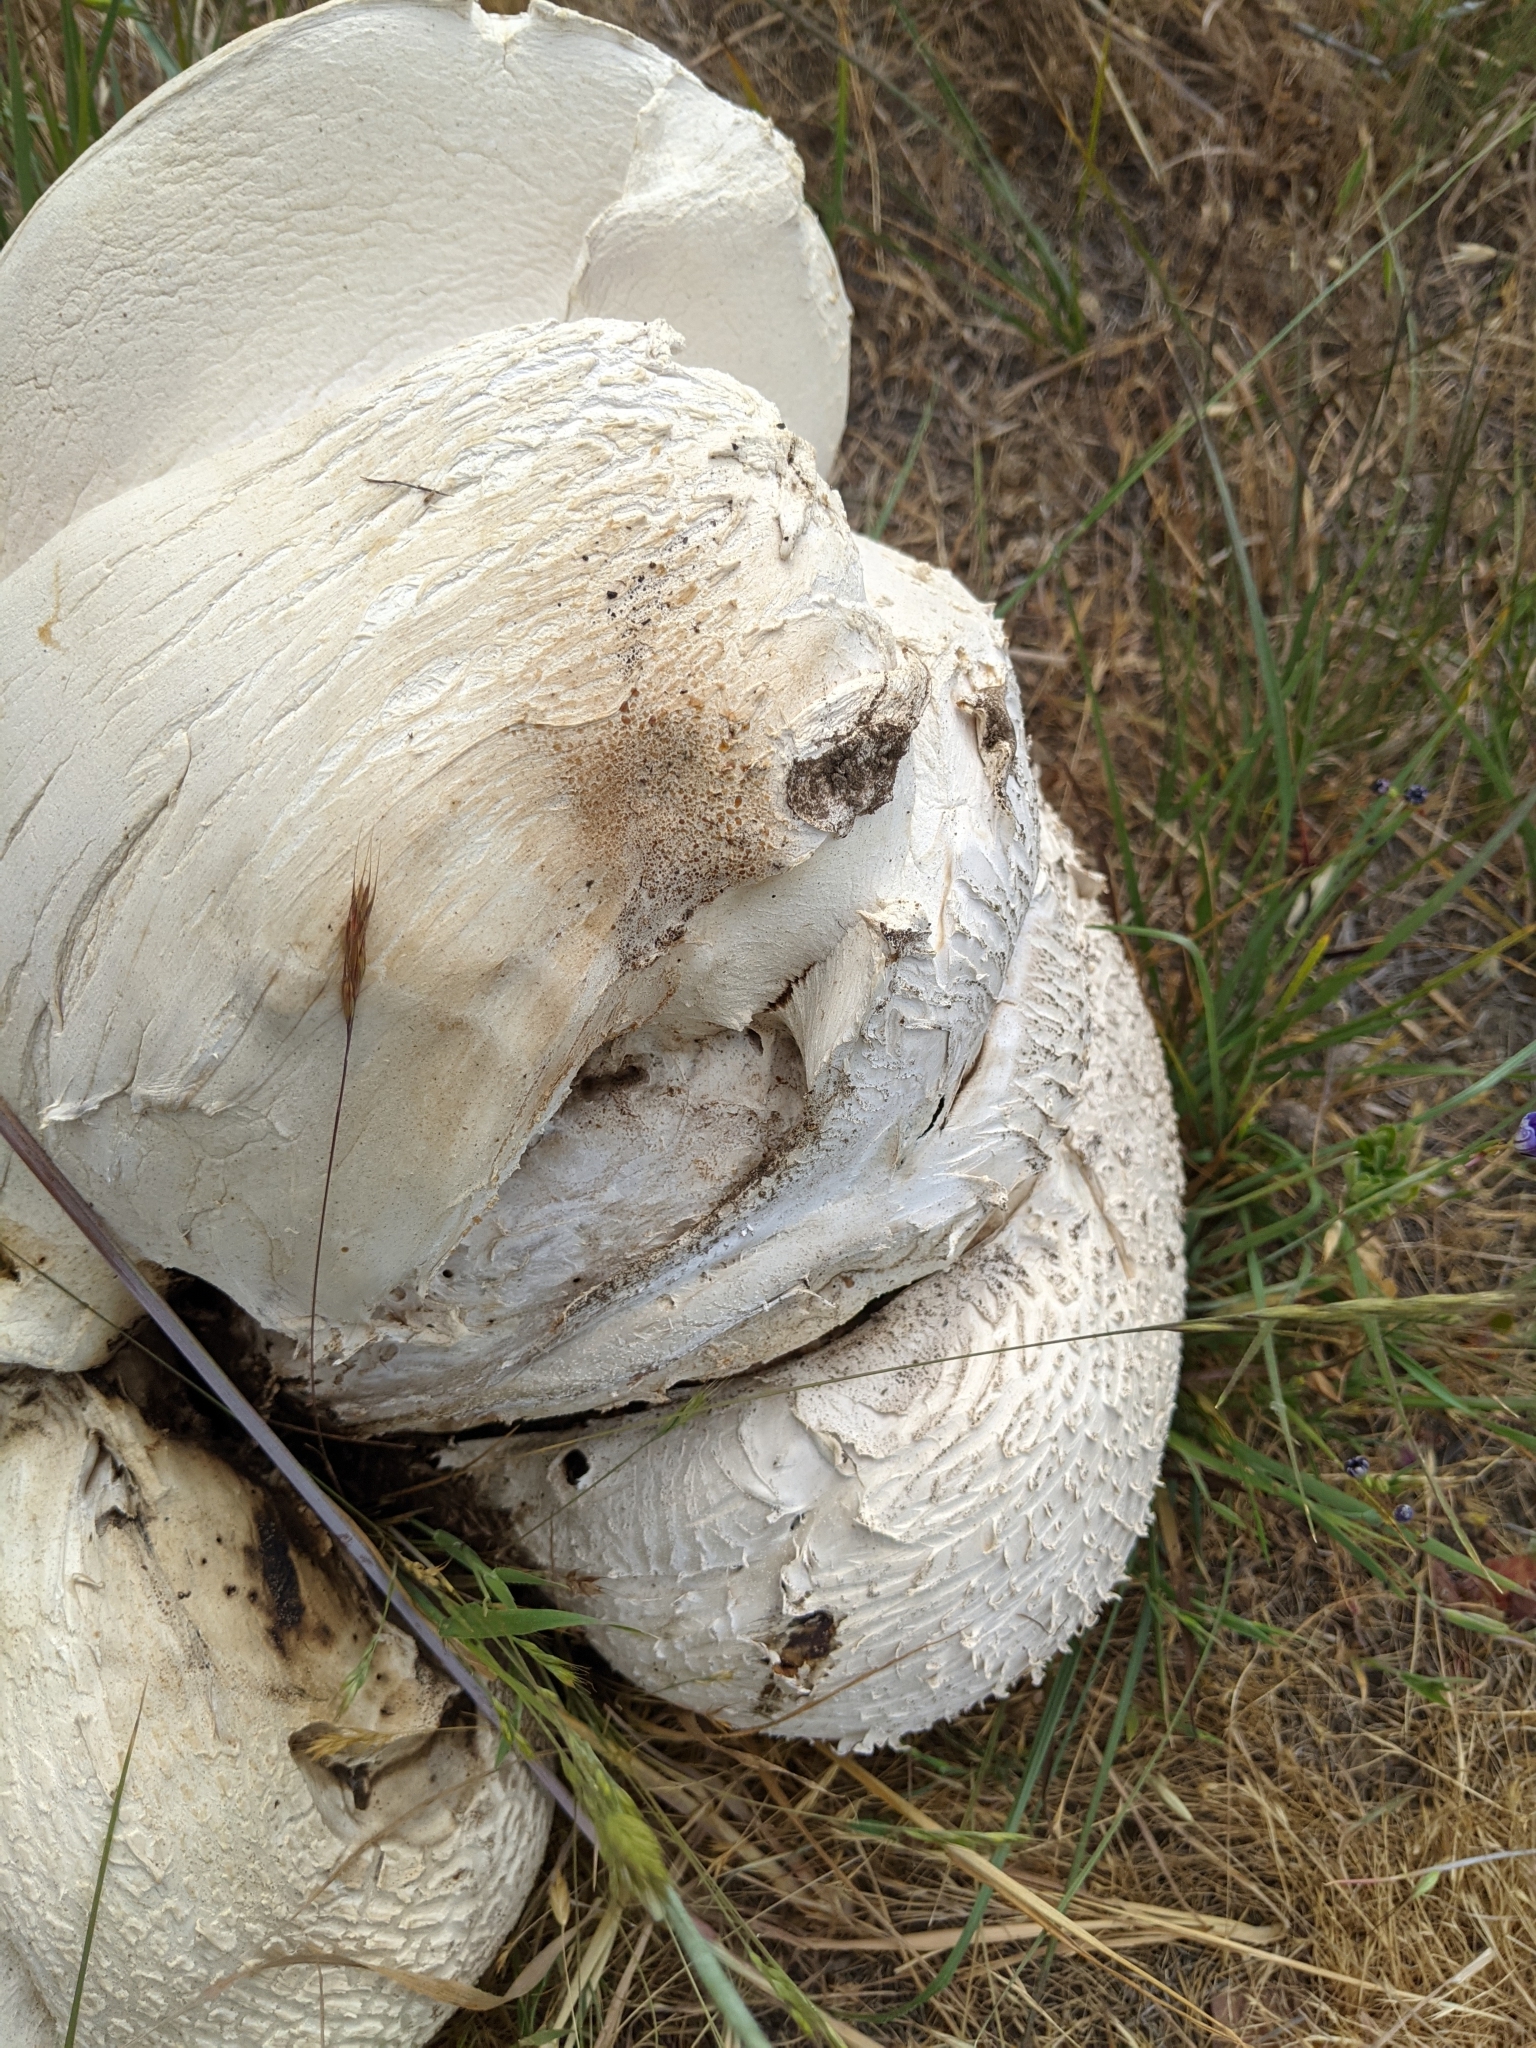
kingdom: Fungi
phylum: Basidiomycota
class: Agaricomycetes
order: Agaricales
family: Lycoperdaceae
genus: Calvatia
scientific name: Calvatia booniana
